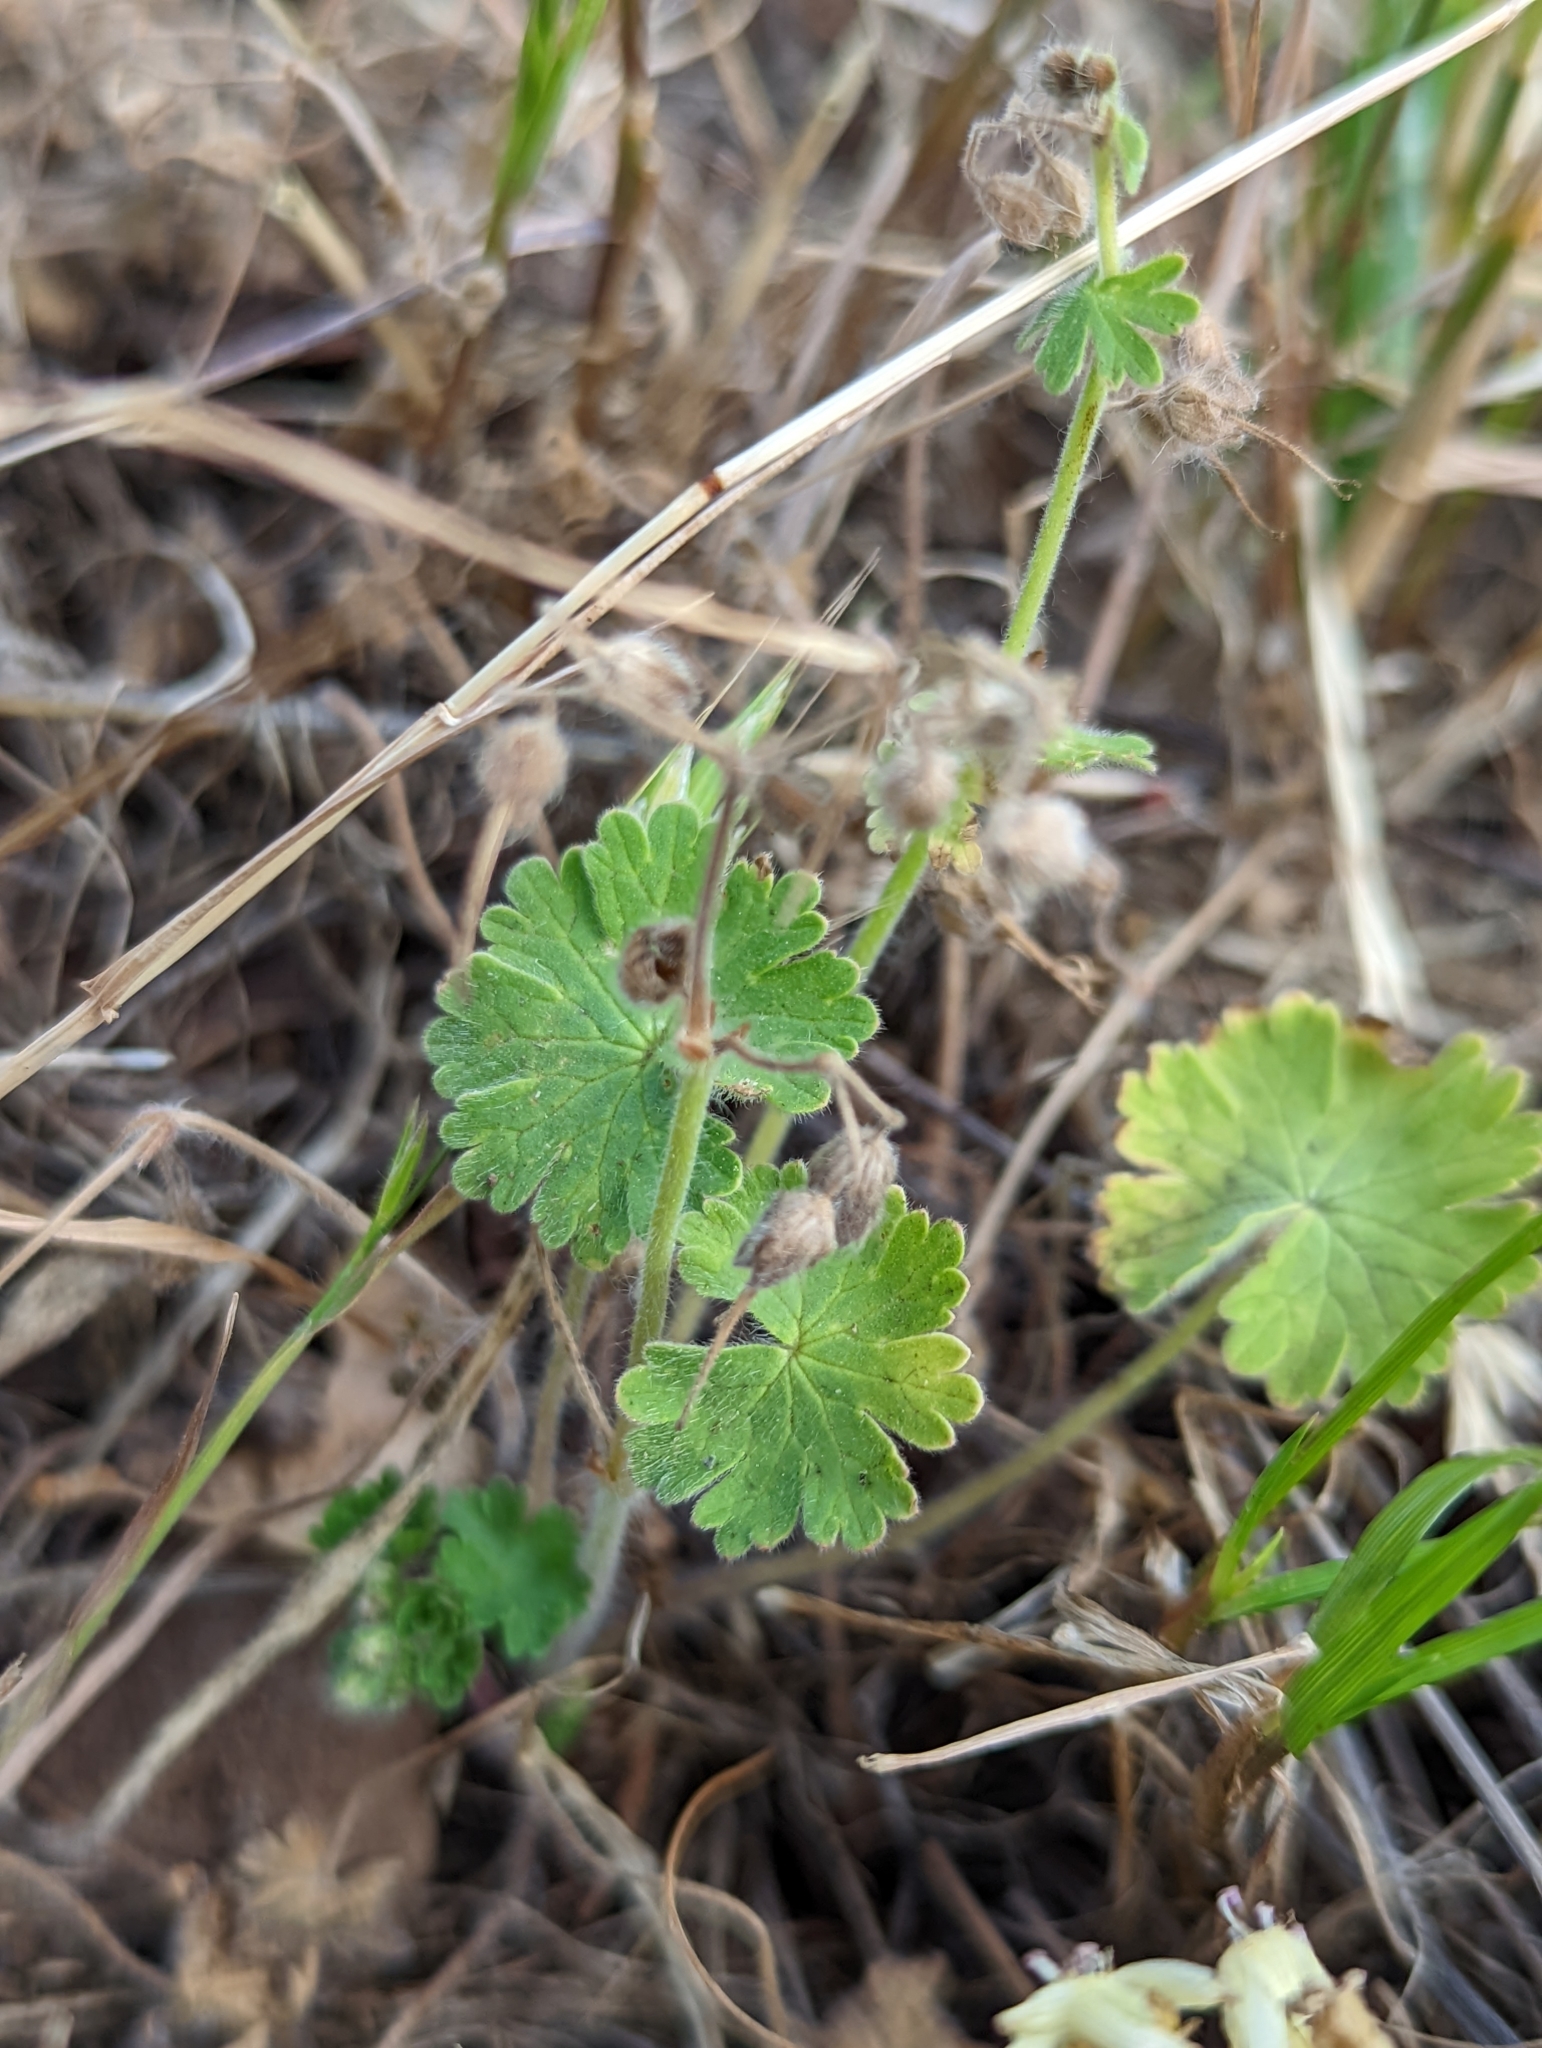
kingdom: Plantae
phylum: Tracheophyta
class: Magnoliopsida
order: Geraniales
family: Geraniaceae
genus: Geranium
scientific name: Geranium
